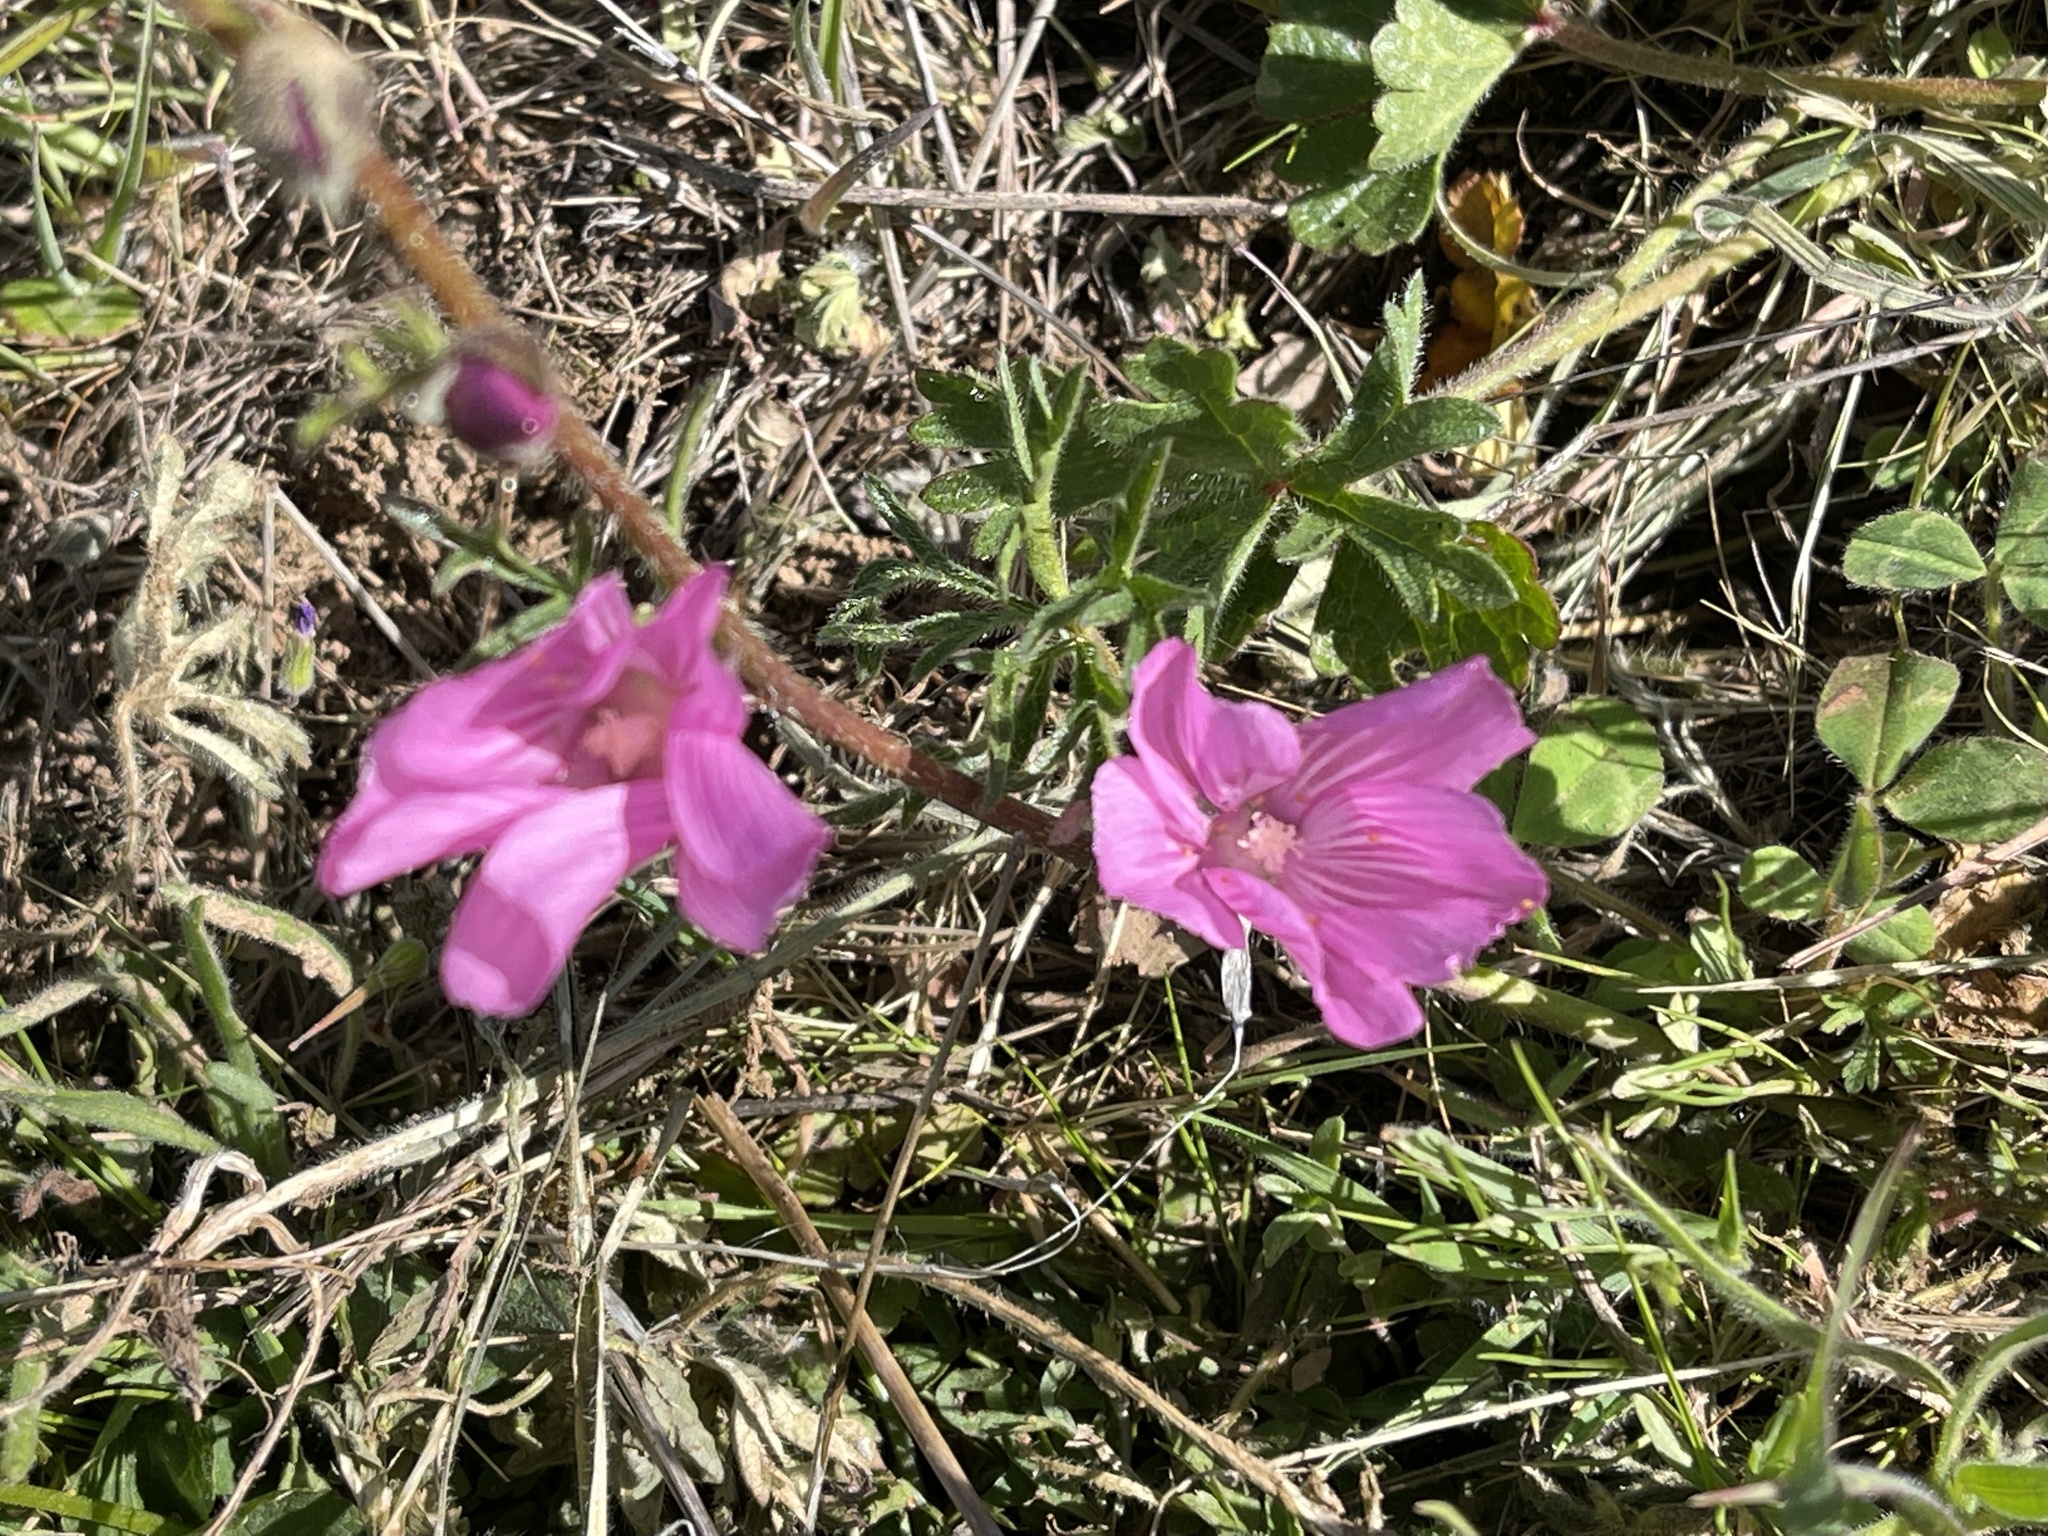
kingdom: Plantae
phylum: Tracheophyta
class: Magnoliopsida
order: Malvales
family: Malvaceae
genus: Sidalcea
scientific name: Sidalcea malviflora
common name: Greek mallow
